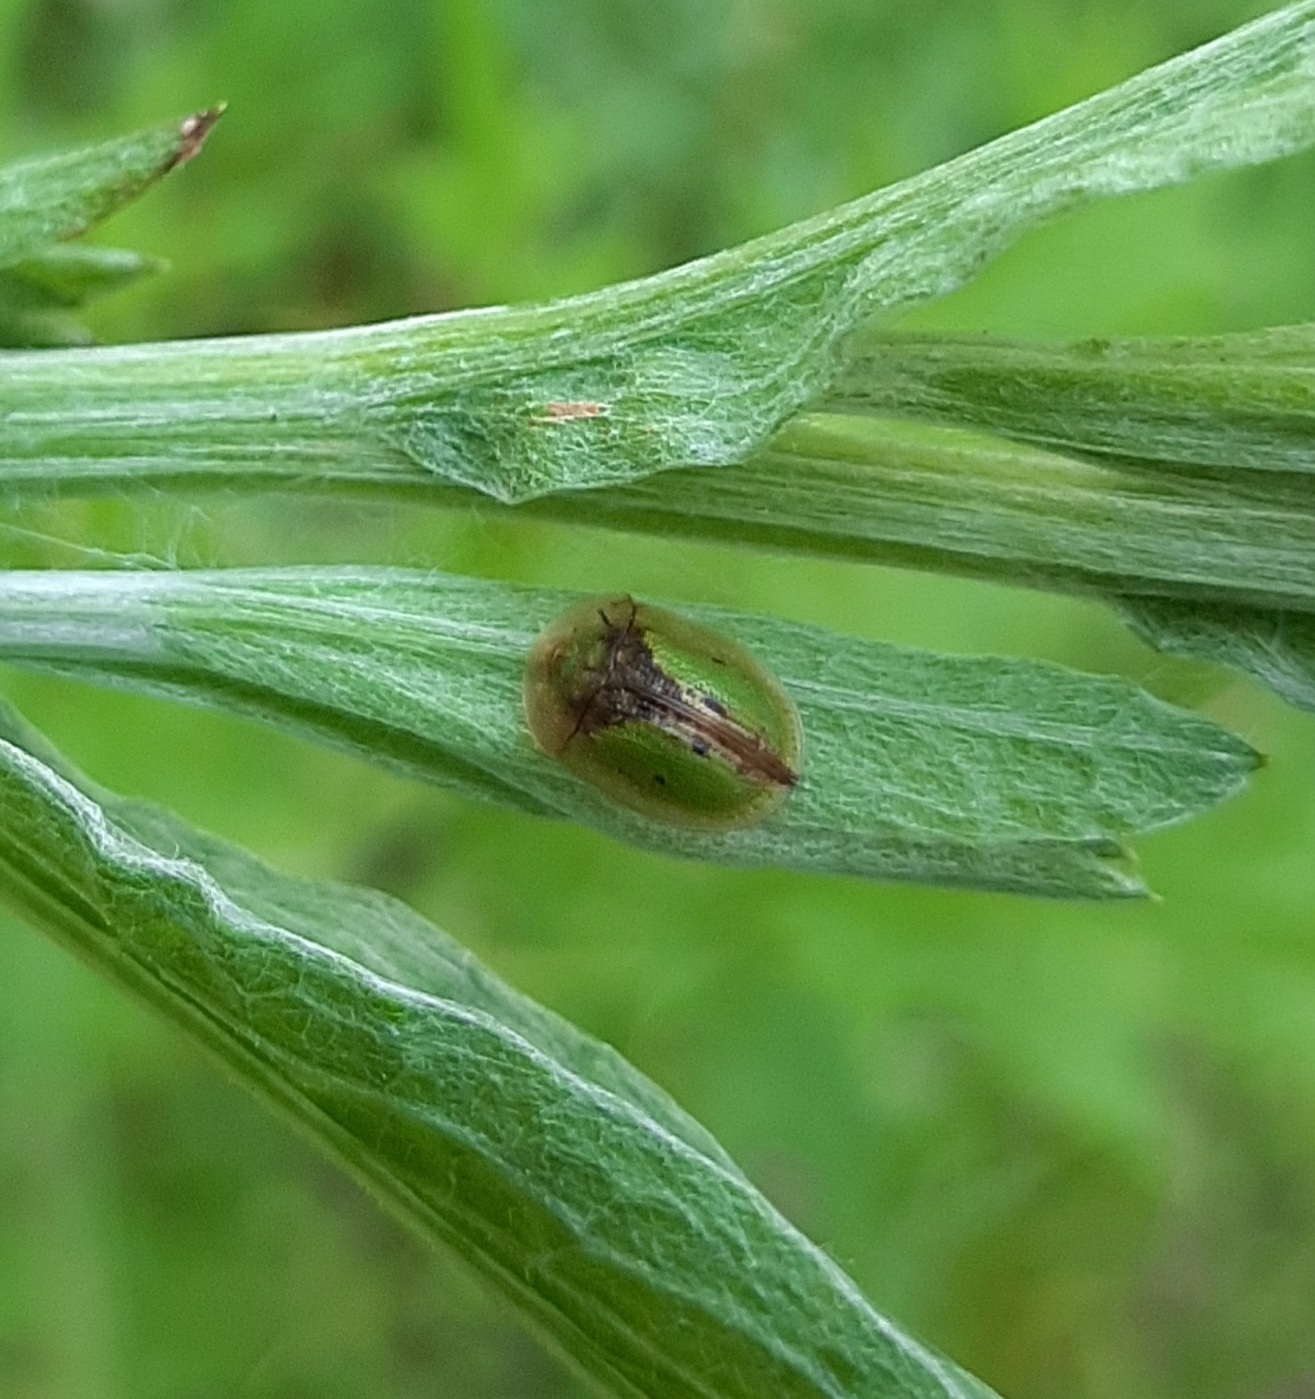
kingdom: Animalia
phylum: Arthropoda
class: Insecta
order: Coleoptera
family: Chrysomelidae
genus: Cassida
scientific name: Cassida vibex
